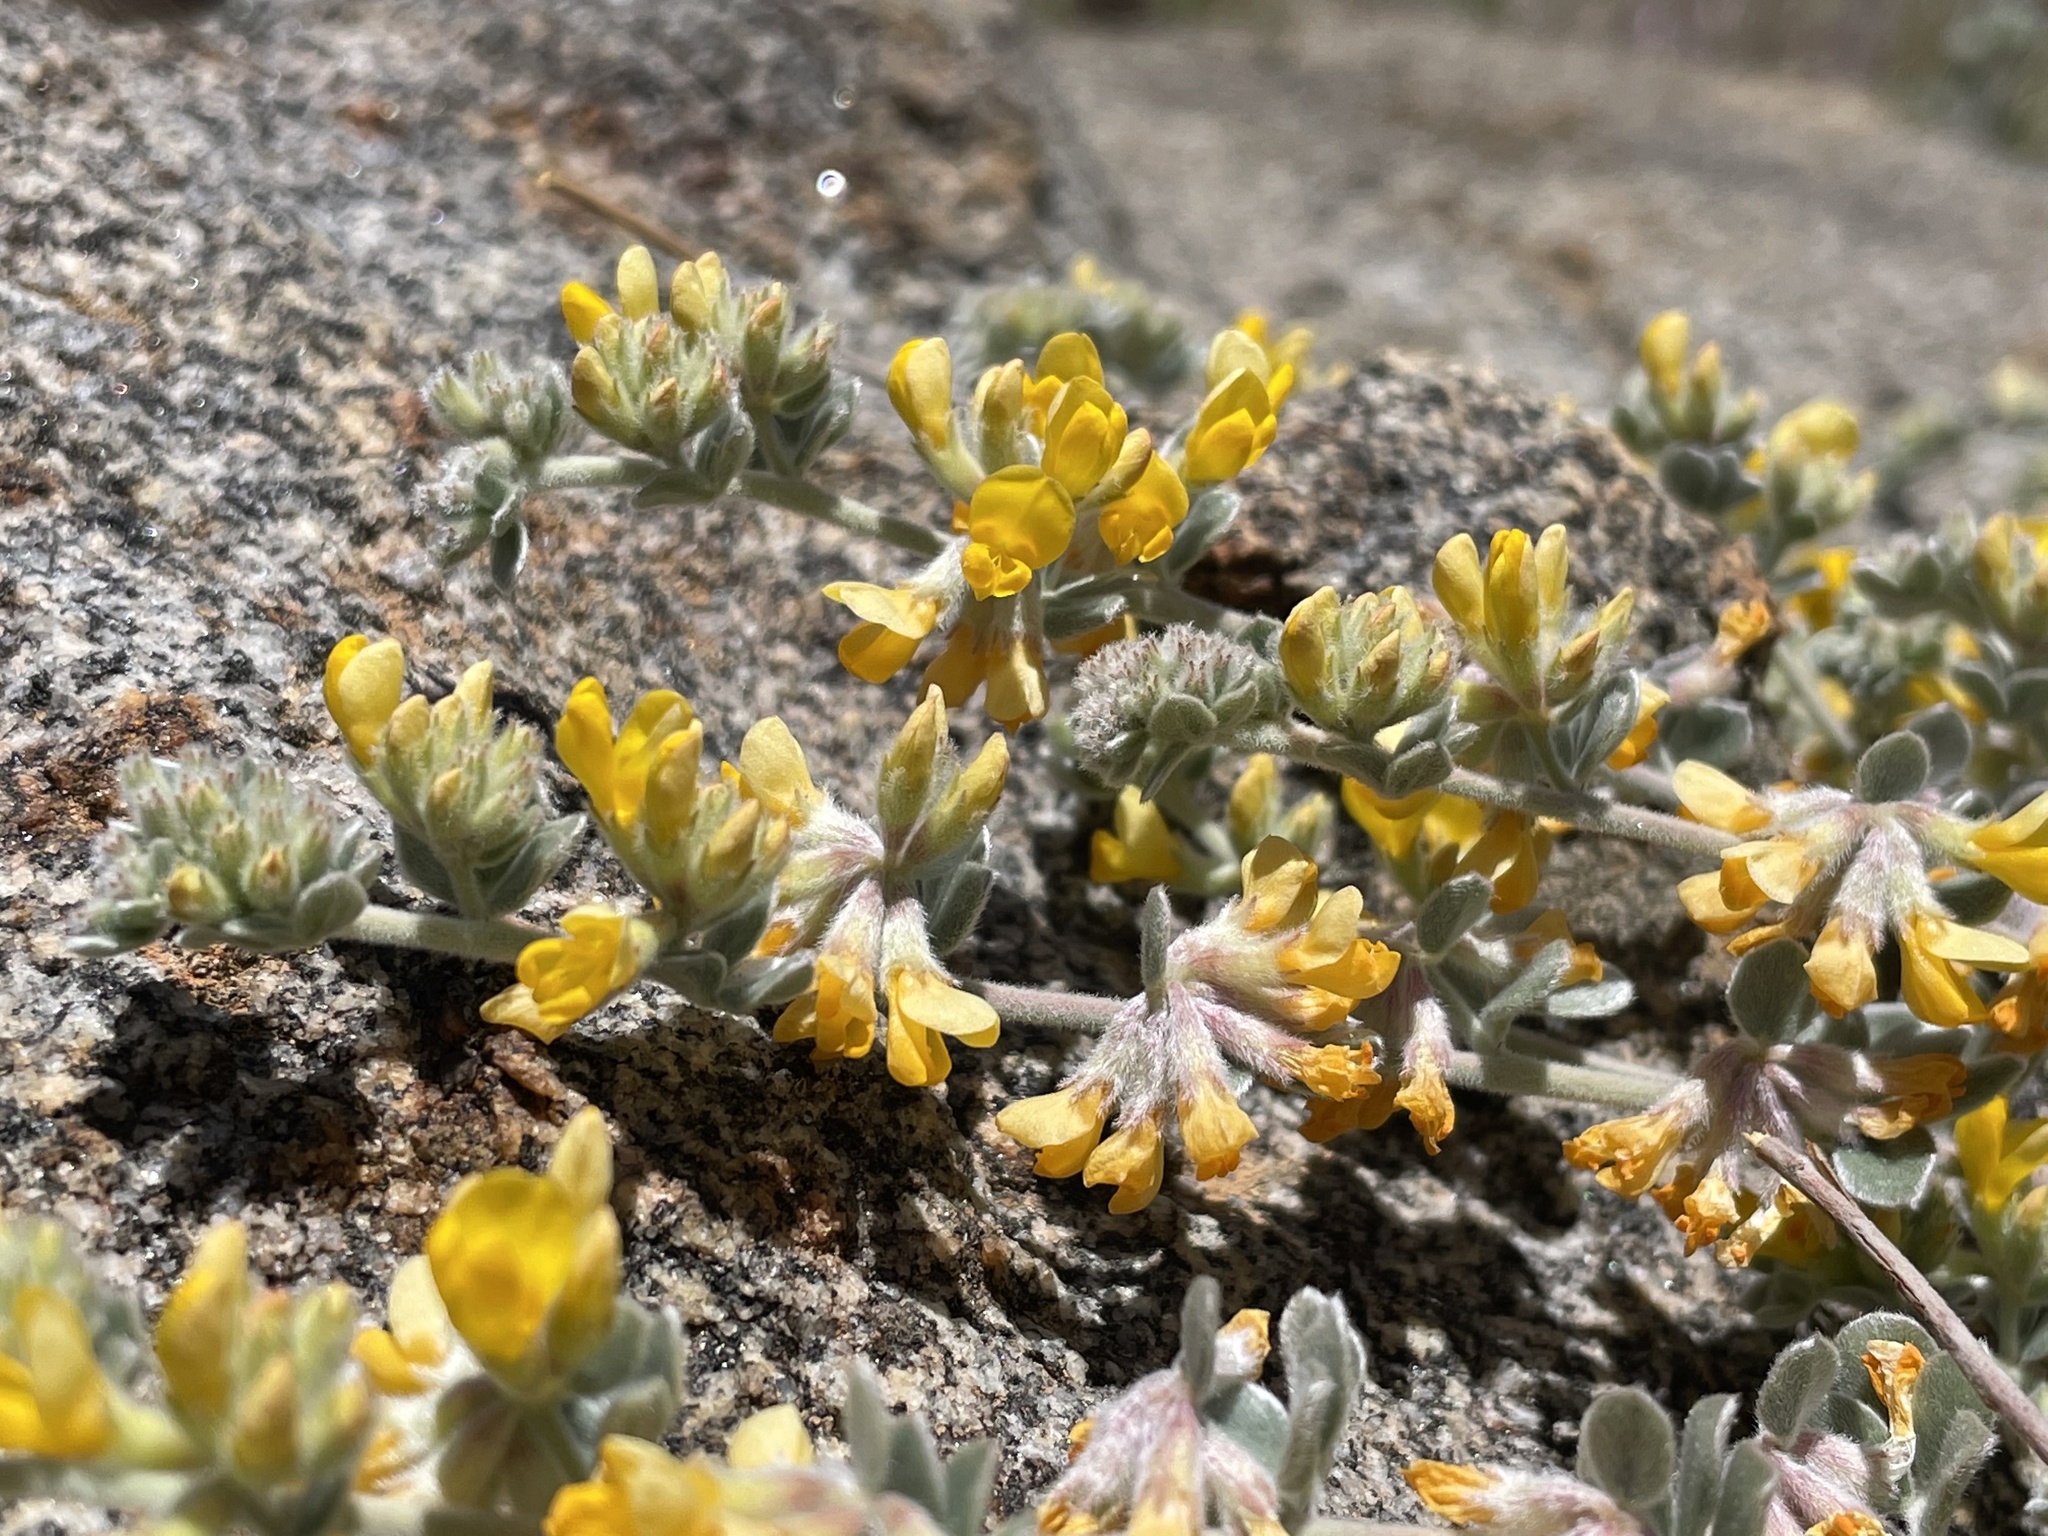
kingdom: Plantae
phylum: Tracheophyta
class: Magnoliopsida
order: Fabales
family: Fabaceae
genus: Acmispon
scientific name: Acmispon argophyllus
